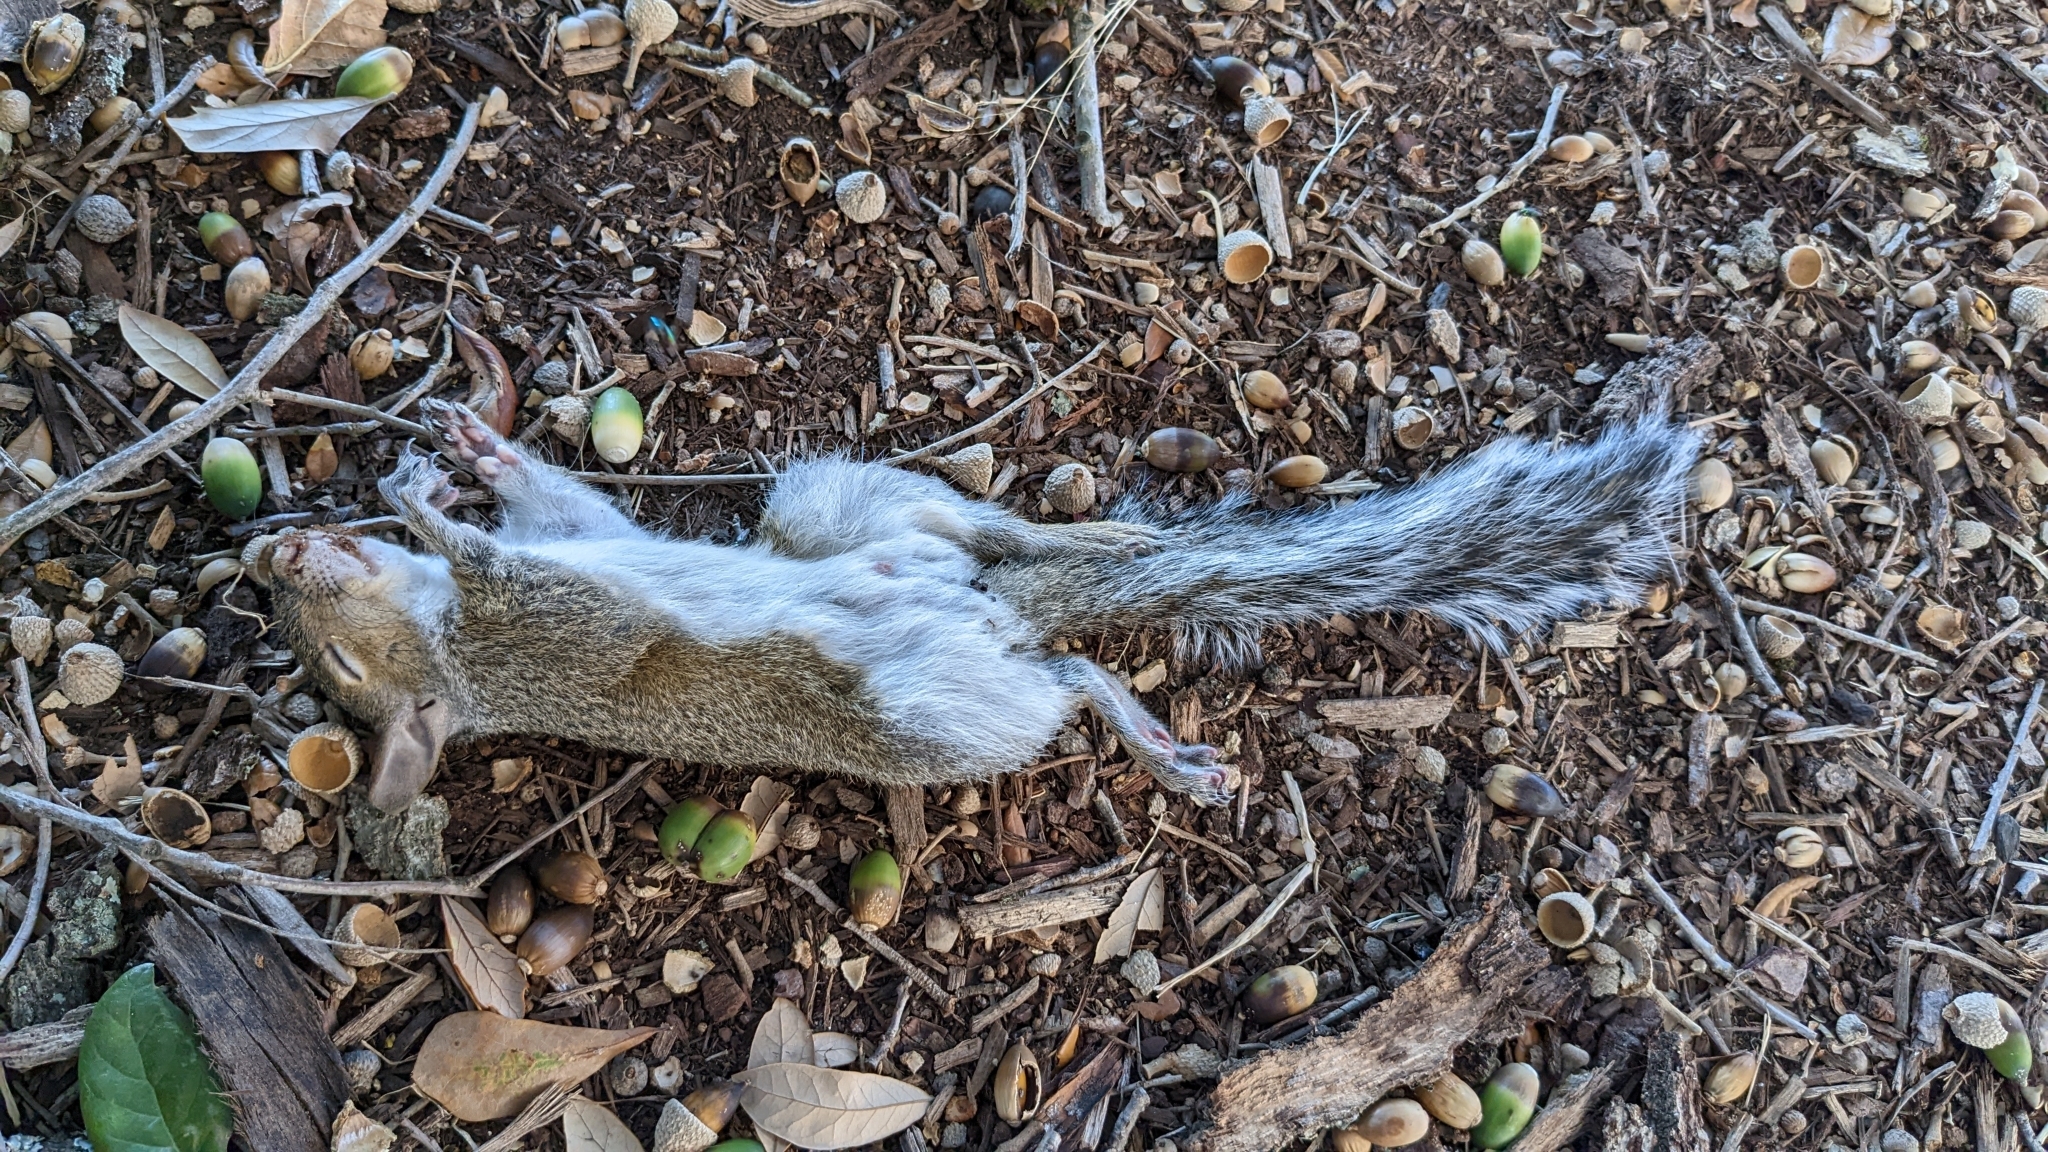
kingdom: Animalia
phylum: Chordata
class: Mammalia
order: Rodentia
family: Sciuridae
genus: Sciurus
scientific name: Sciurus carolinensis
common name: Eastern gray squirrel
